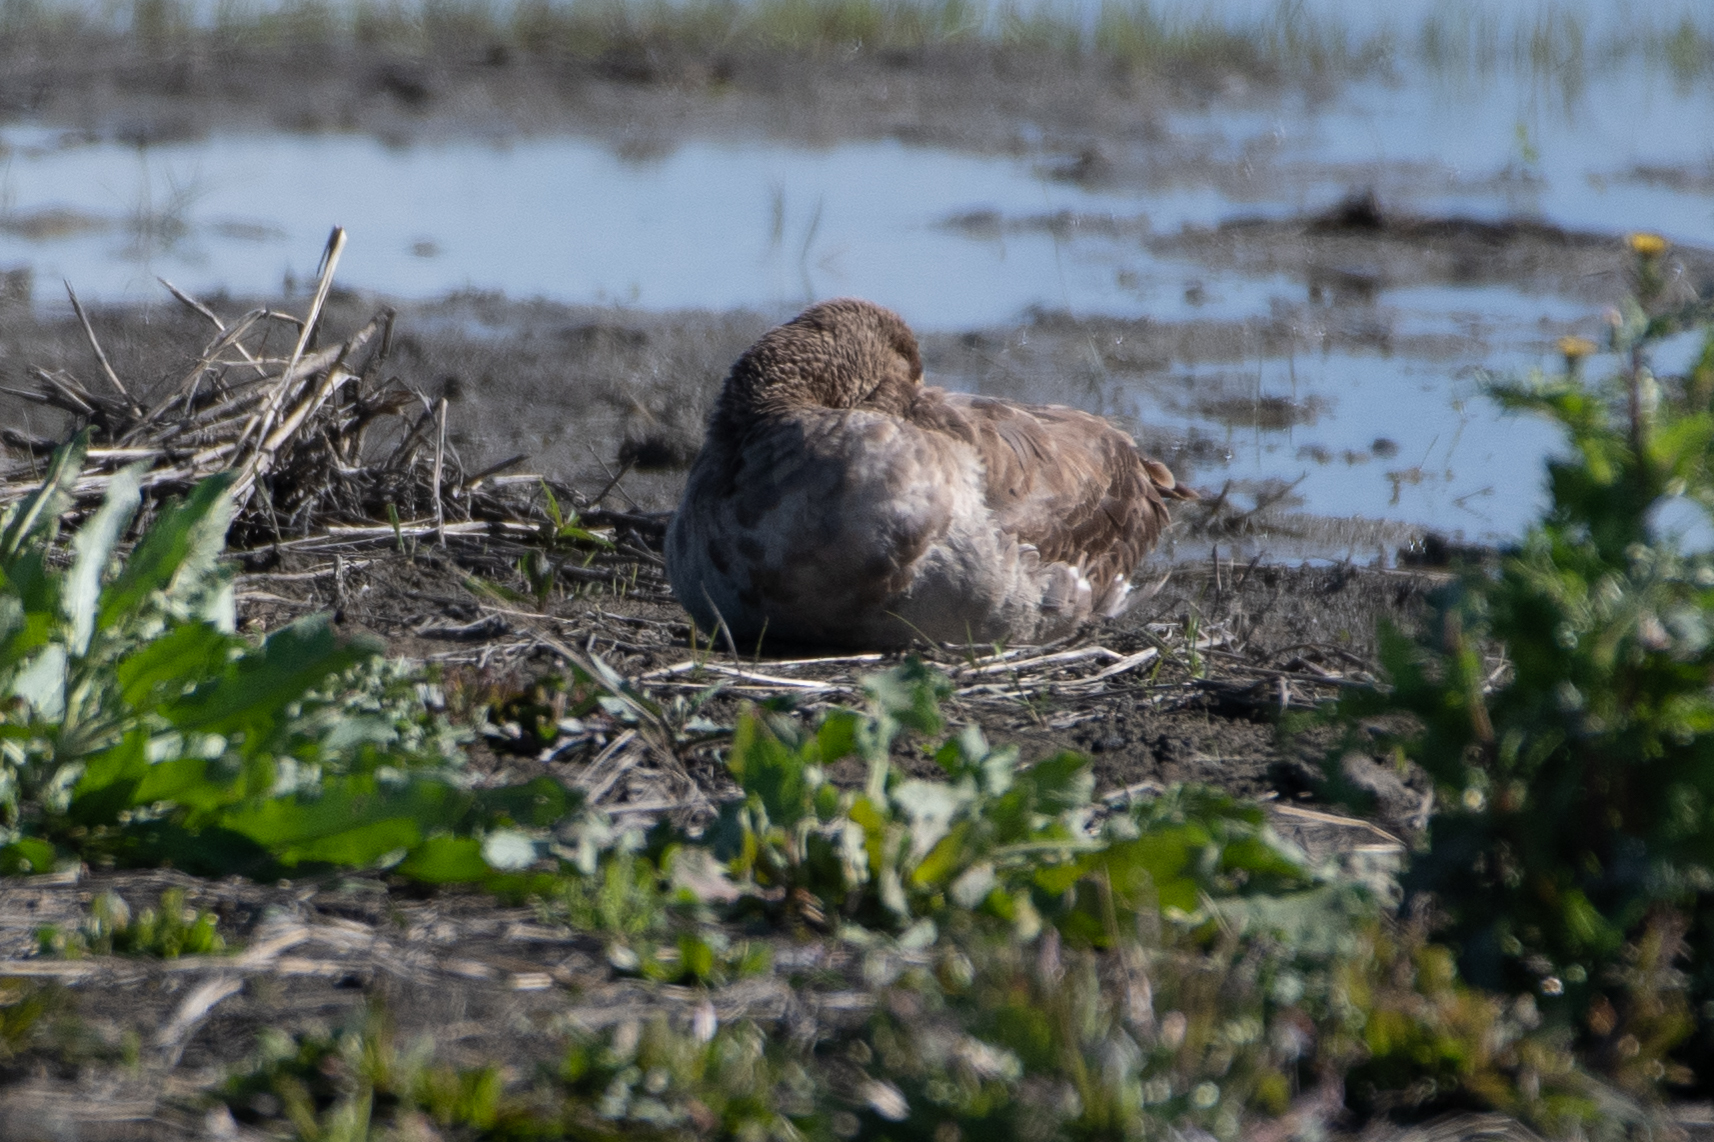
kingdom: Animalia
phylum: Chordata
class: Aves
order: Anseriformes
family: Anatidae
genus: Anser
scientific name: Anser albifrons
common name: Greater white-fronted goose
